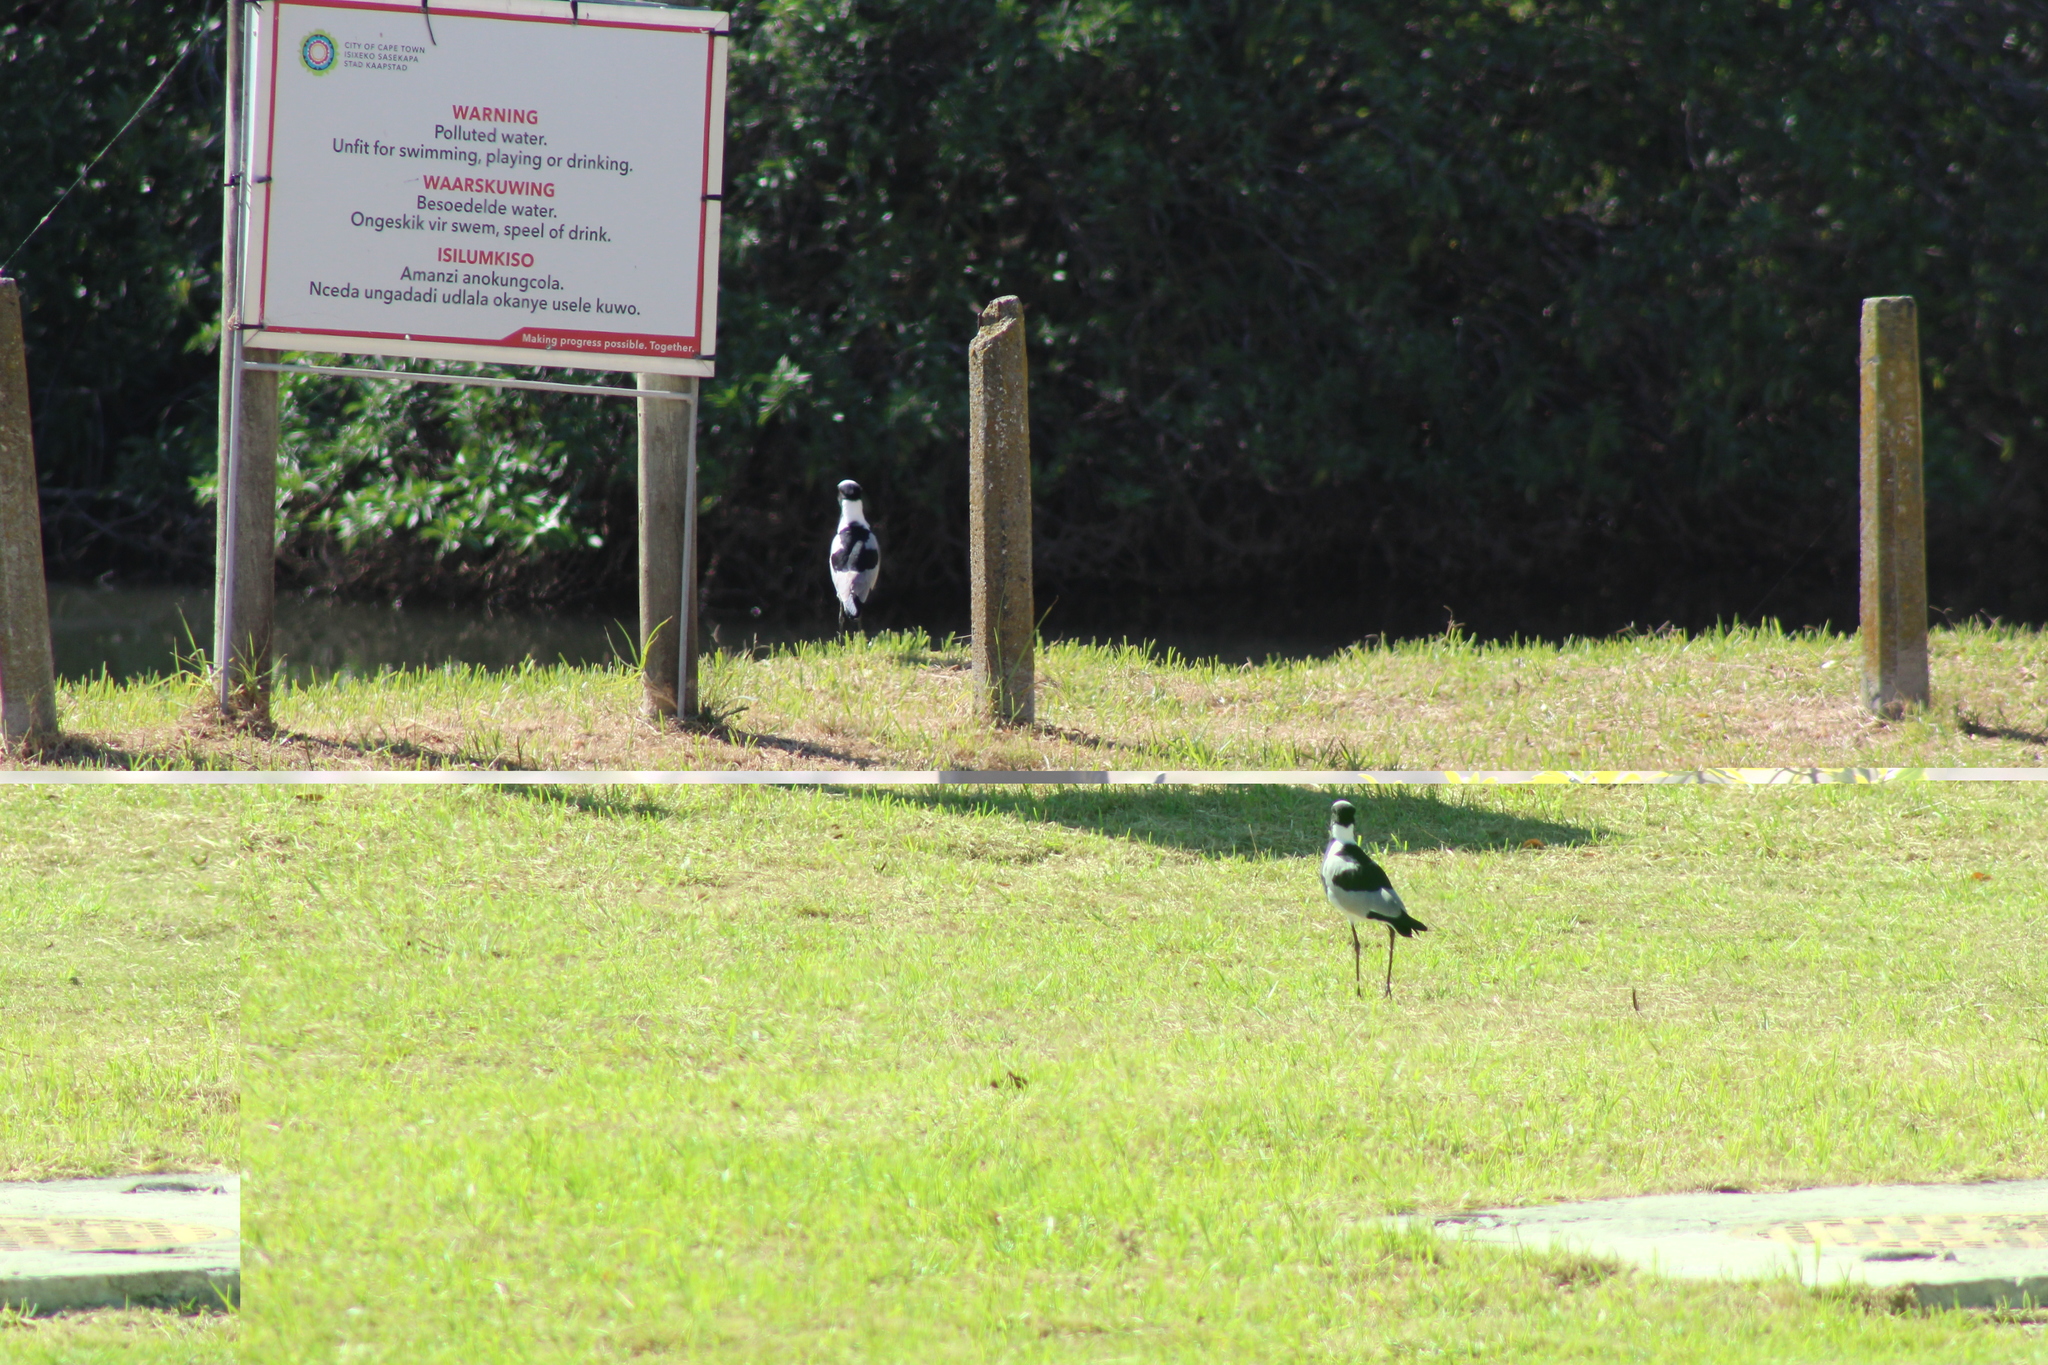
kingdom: Animalia
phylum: Chordata
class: Aves
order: Charadriiformes
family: Charadriidae
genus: Vanellus
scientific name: Vanellus armatus
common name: Blacksmith lapwing
